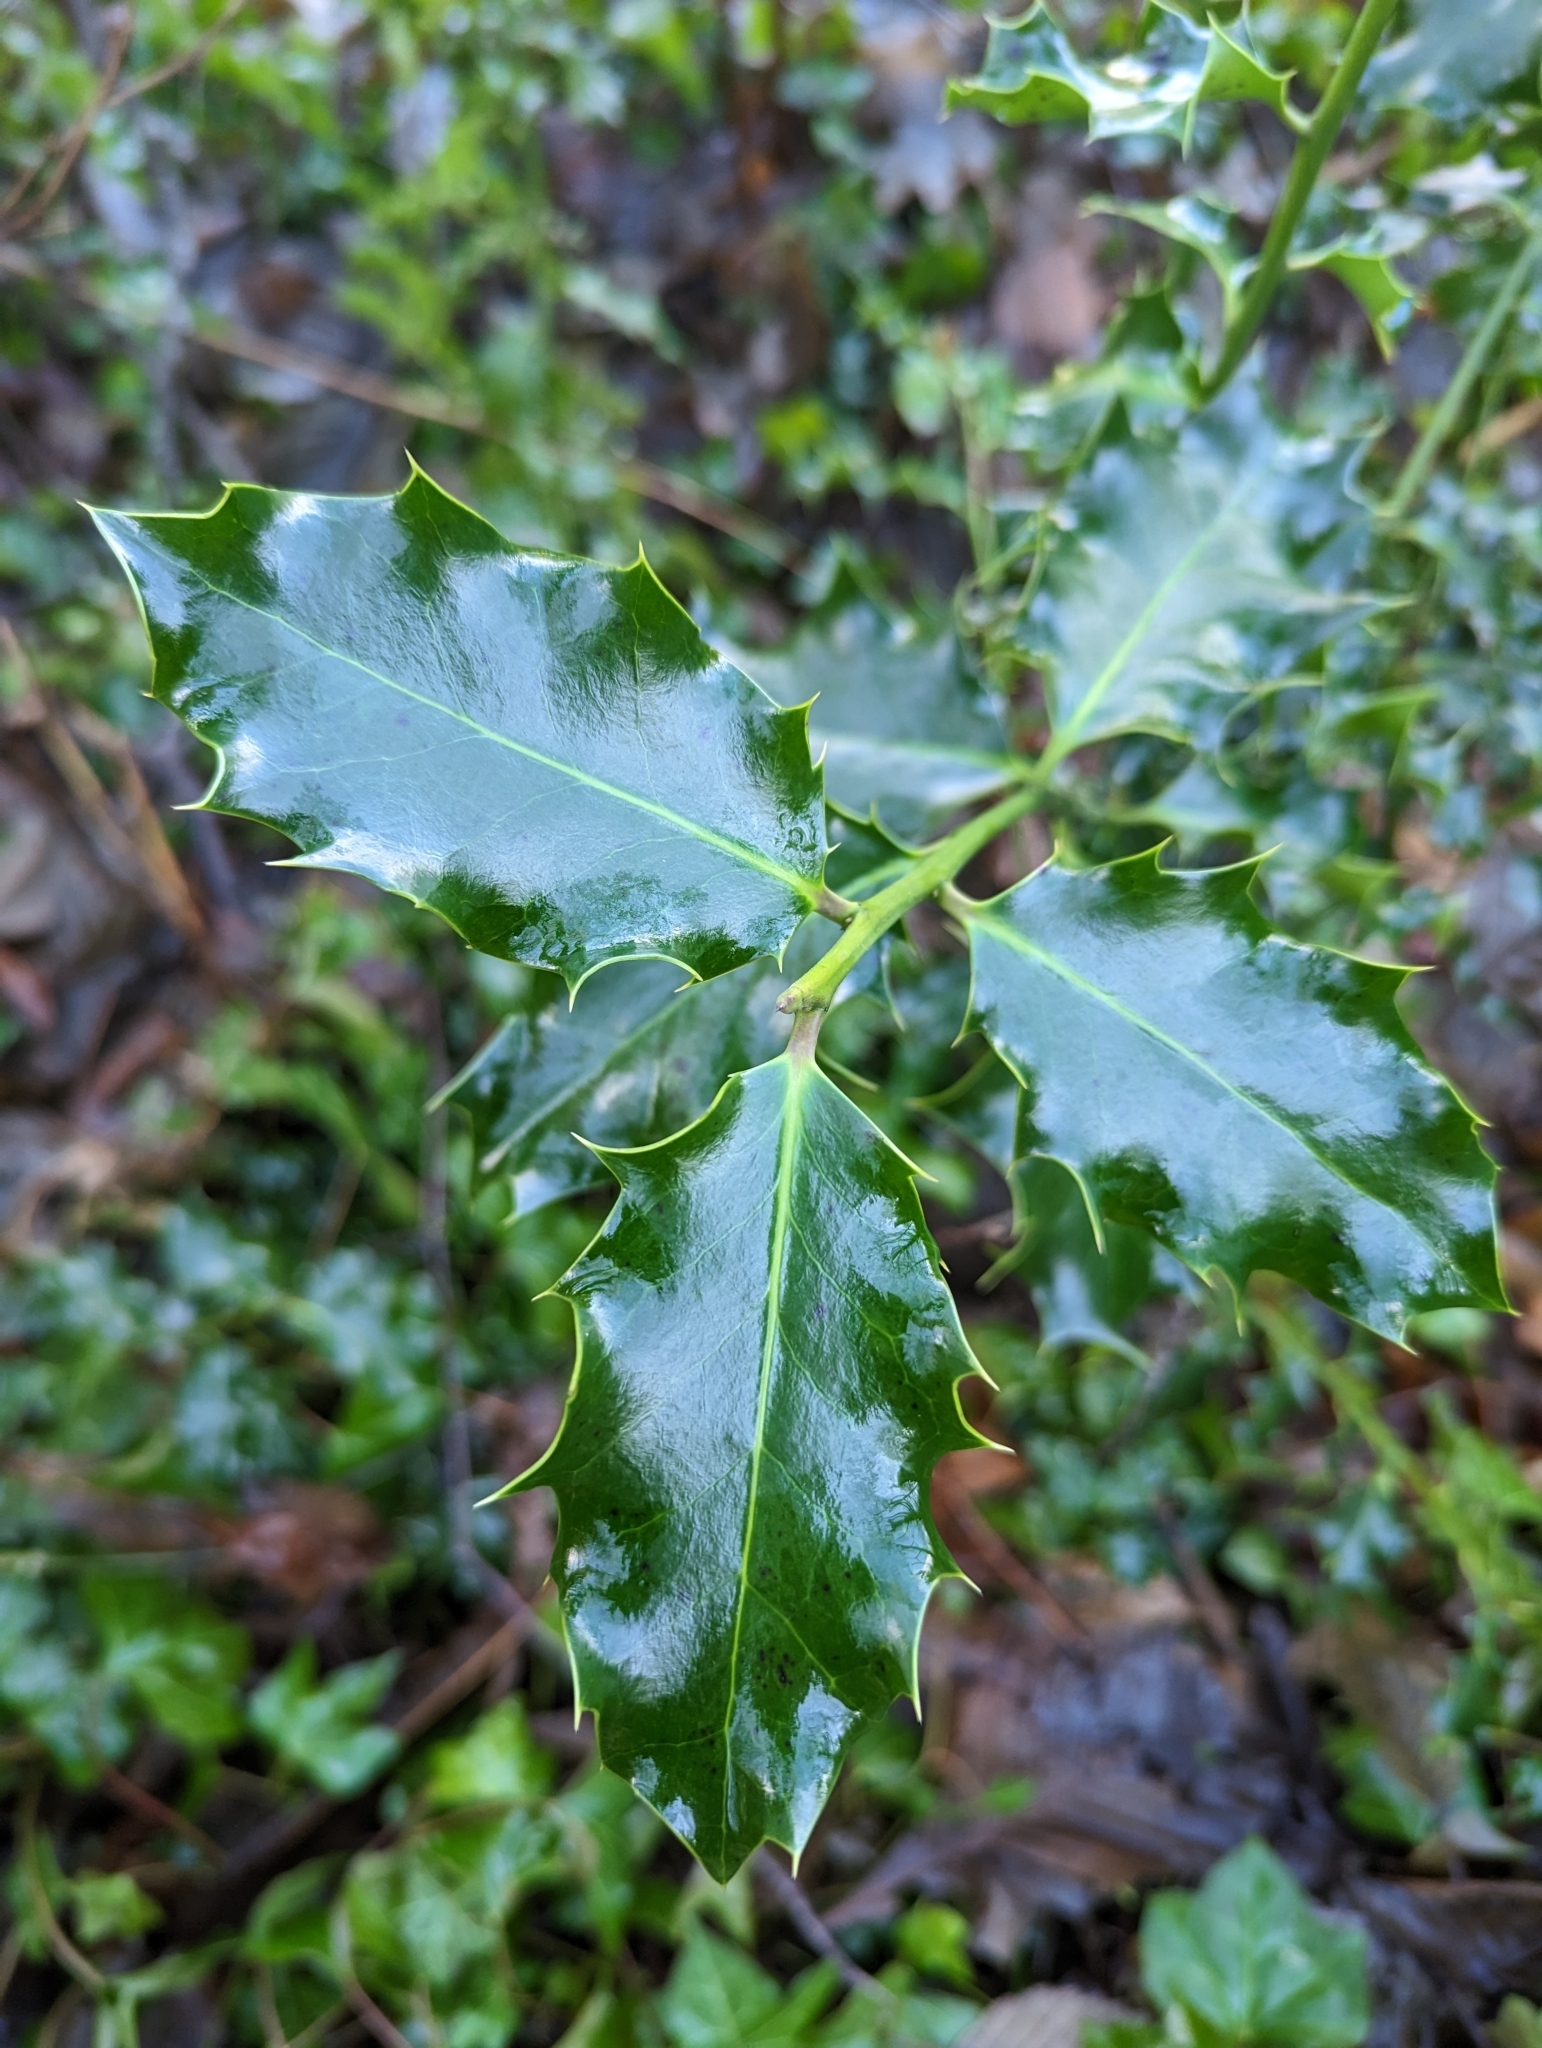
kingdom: Plantae
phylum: Tracheophyta
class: Magnoliopsida
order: Aquifoliales
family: Aquifoliaceae
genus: Ilex
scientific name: Ilex aquifolium
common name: English holly
